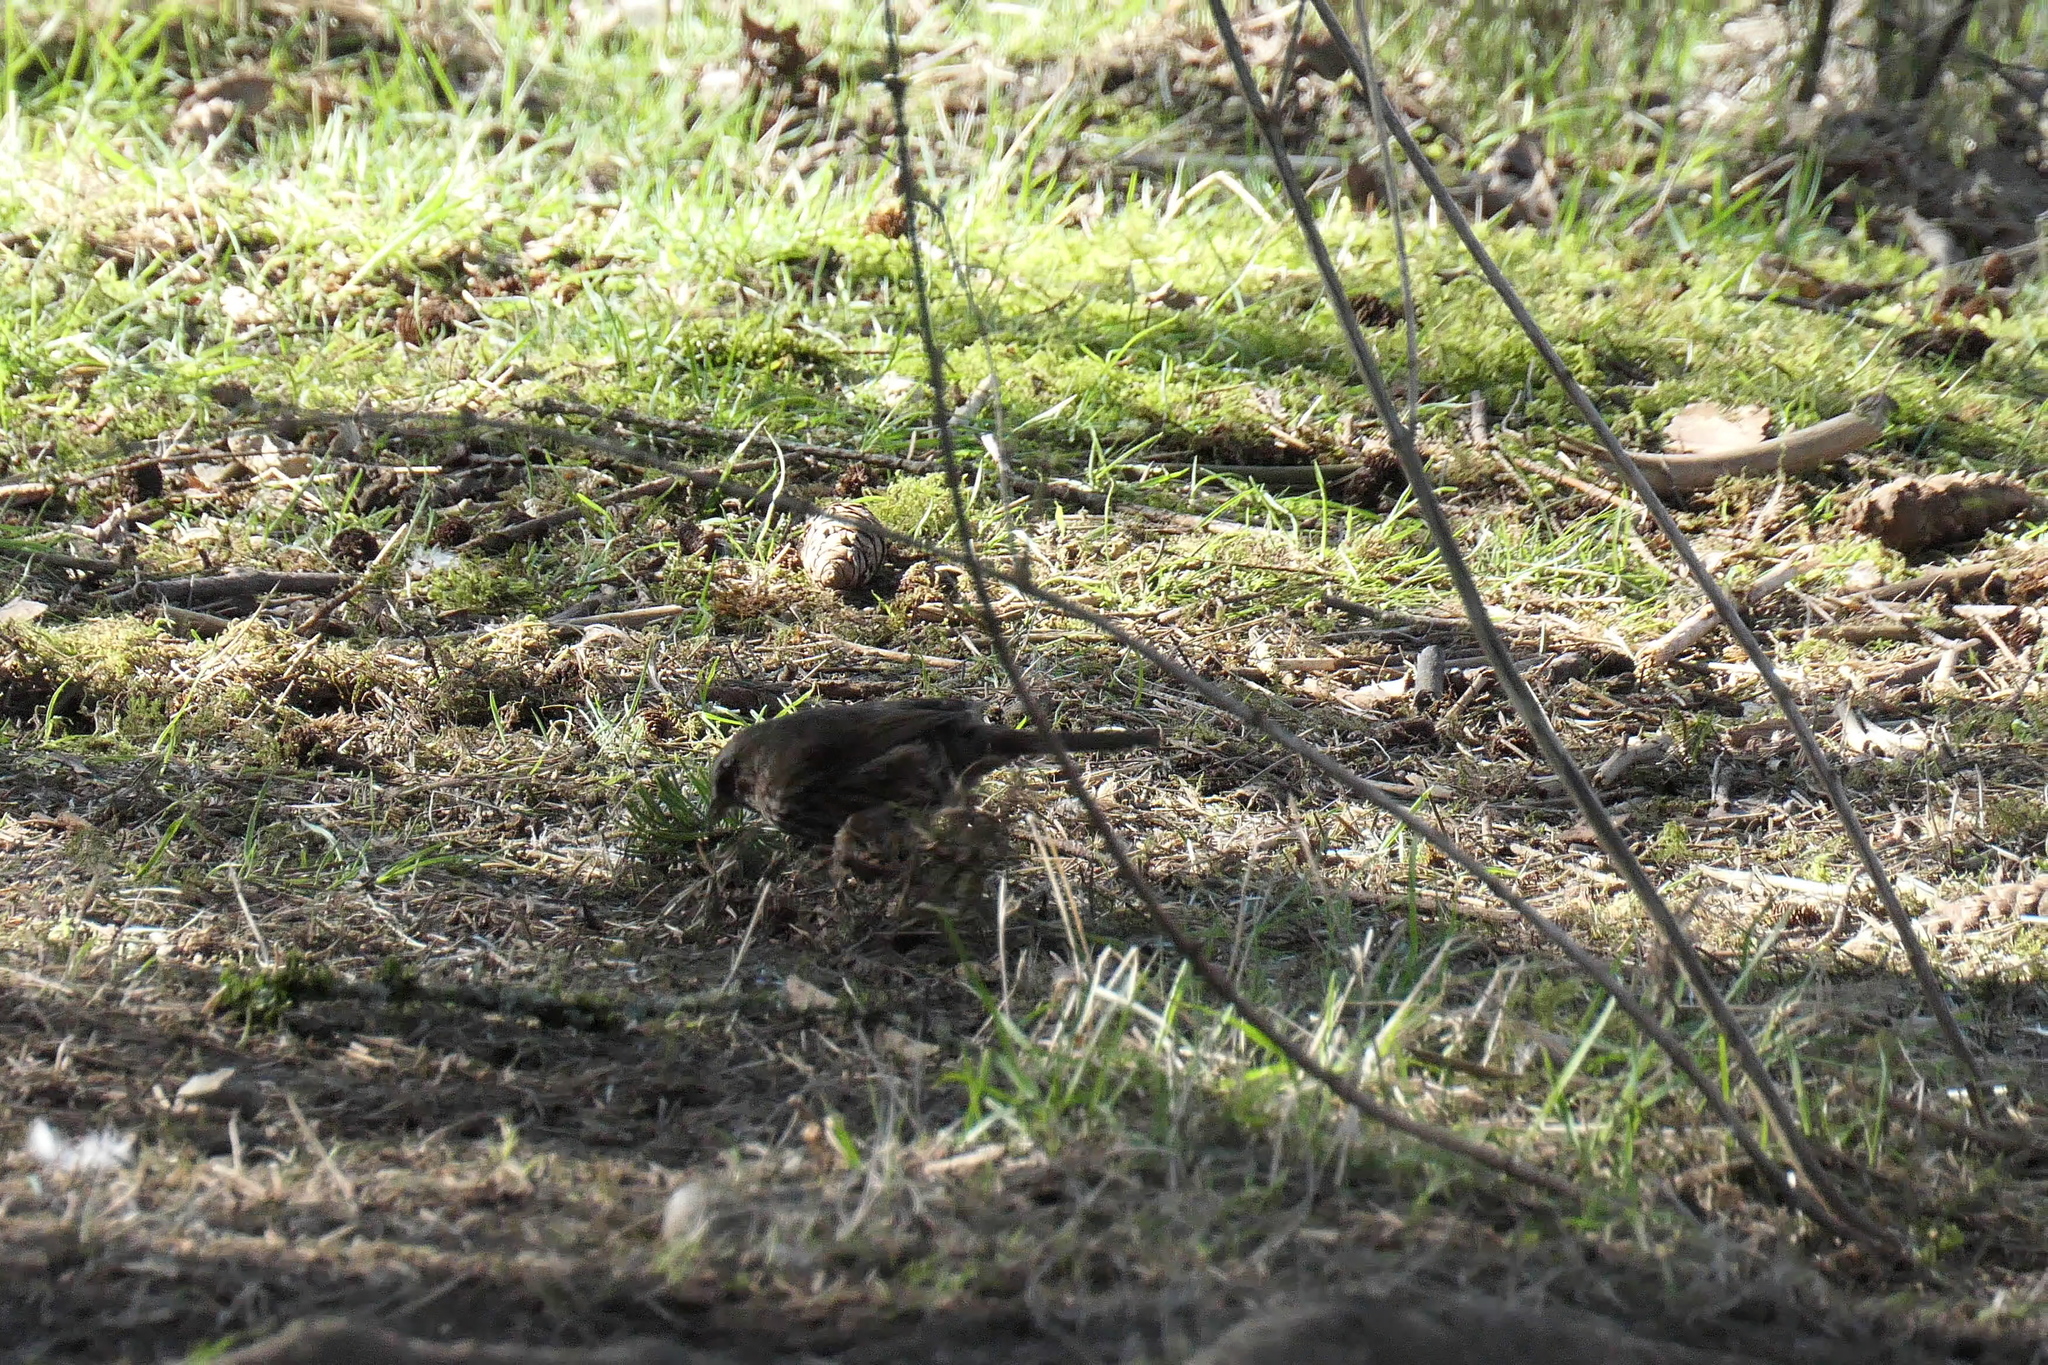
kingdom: Animalia
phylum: Chordata
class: Aves
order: Passeriformes
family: Passerellidae
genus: Melospiza
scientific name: Melospiza melodia
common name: Song sparrow
